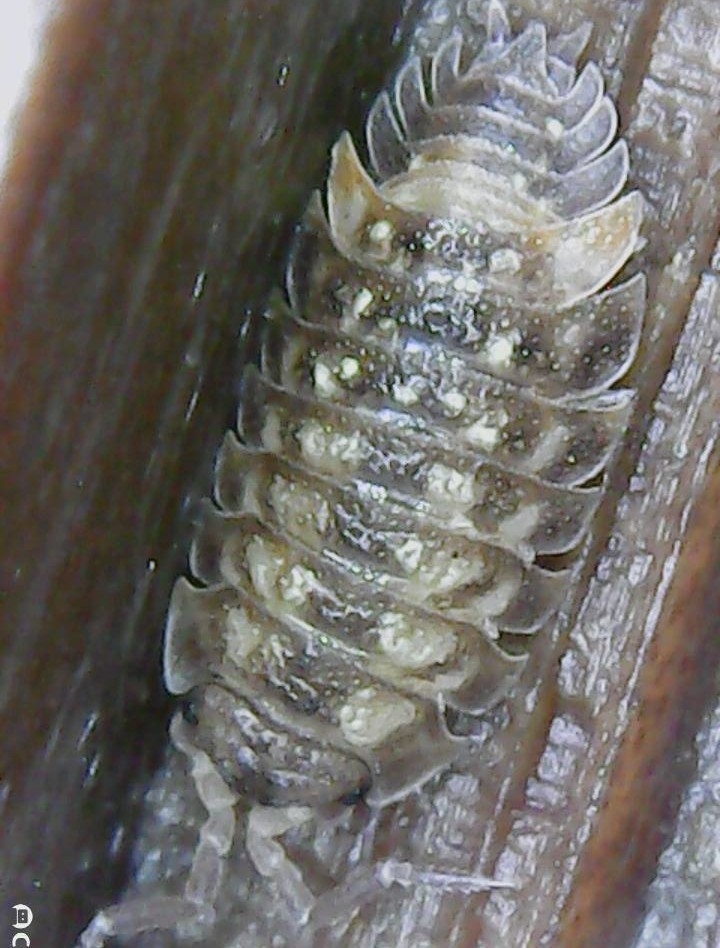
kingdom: Animalia
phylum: Arthropoda
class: Malacostraca
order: Isopoda
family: Oniscidae
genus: Oniscus
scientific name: Oniscus asellus
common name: Common shiny woodlouse
